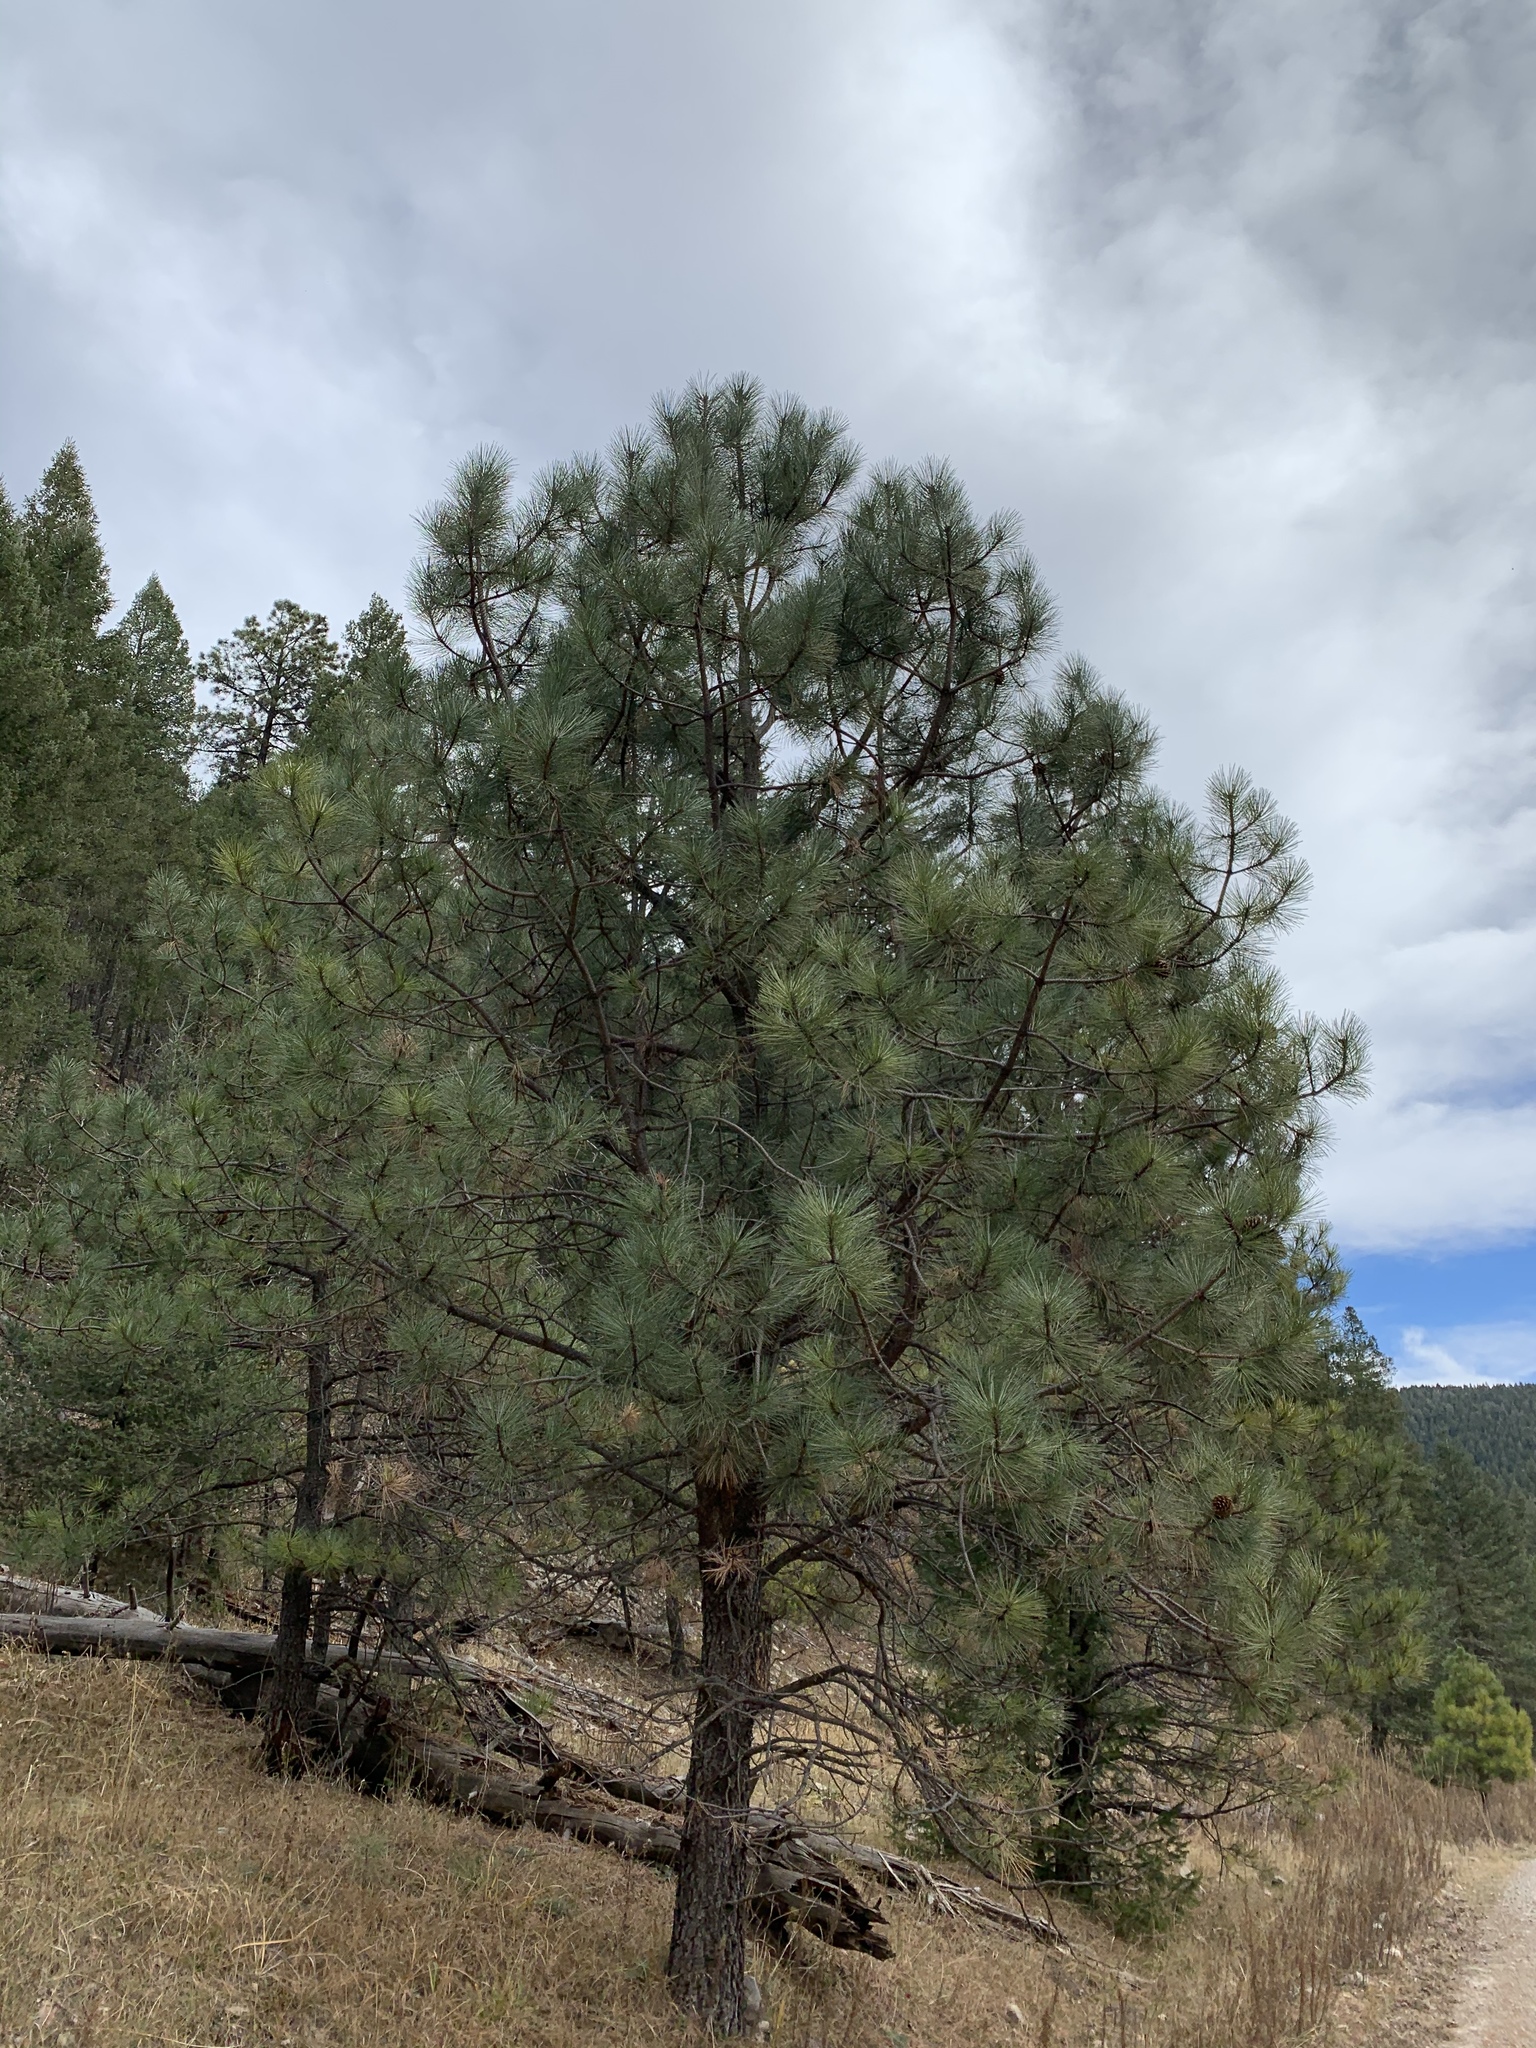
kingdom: Plantae
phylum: Tracheophyta
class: Pinopsida
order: Pinales
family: Pinaceae
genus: Pinus
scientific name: Pinus ponderosa
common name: Western yellow-pine
